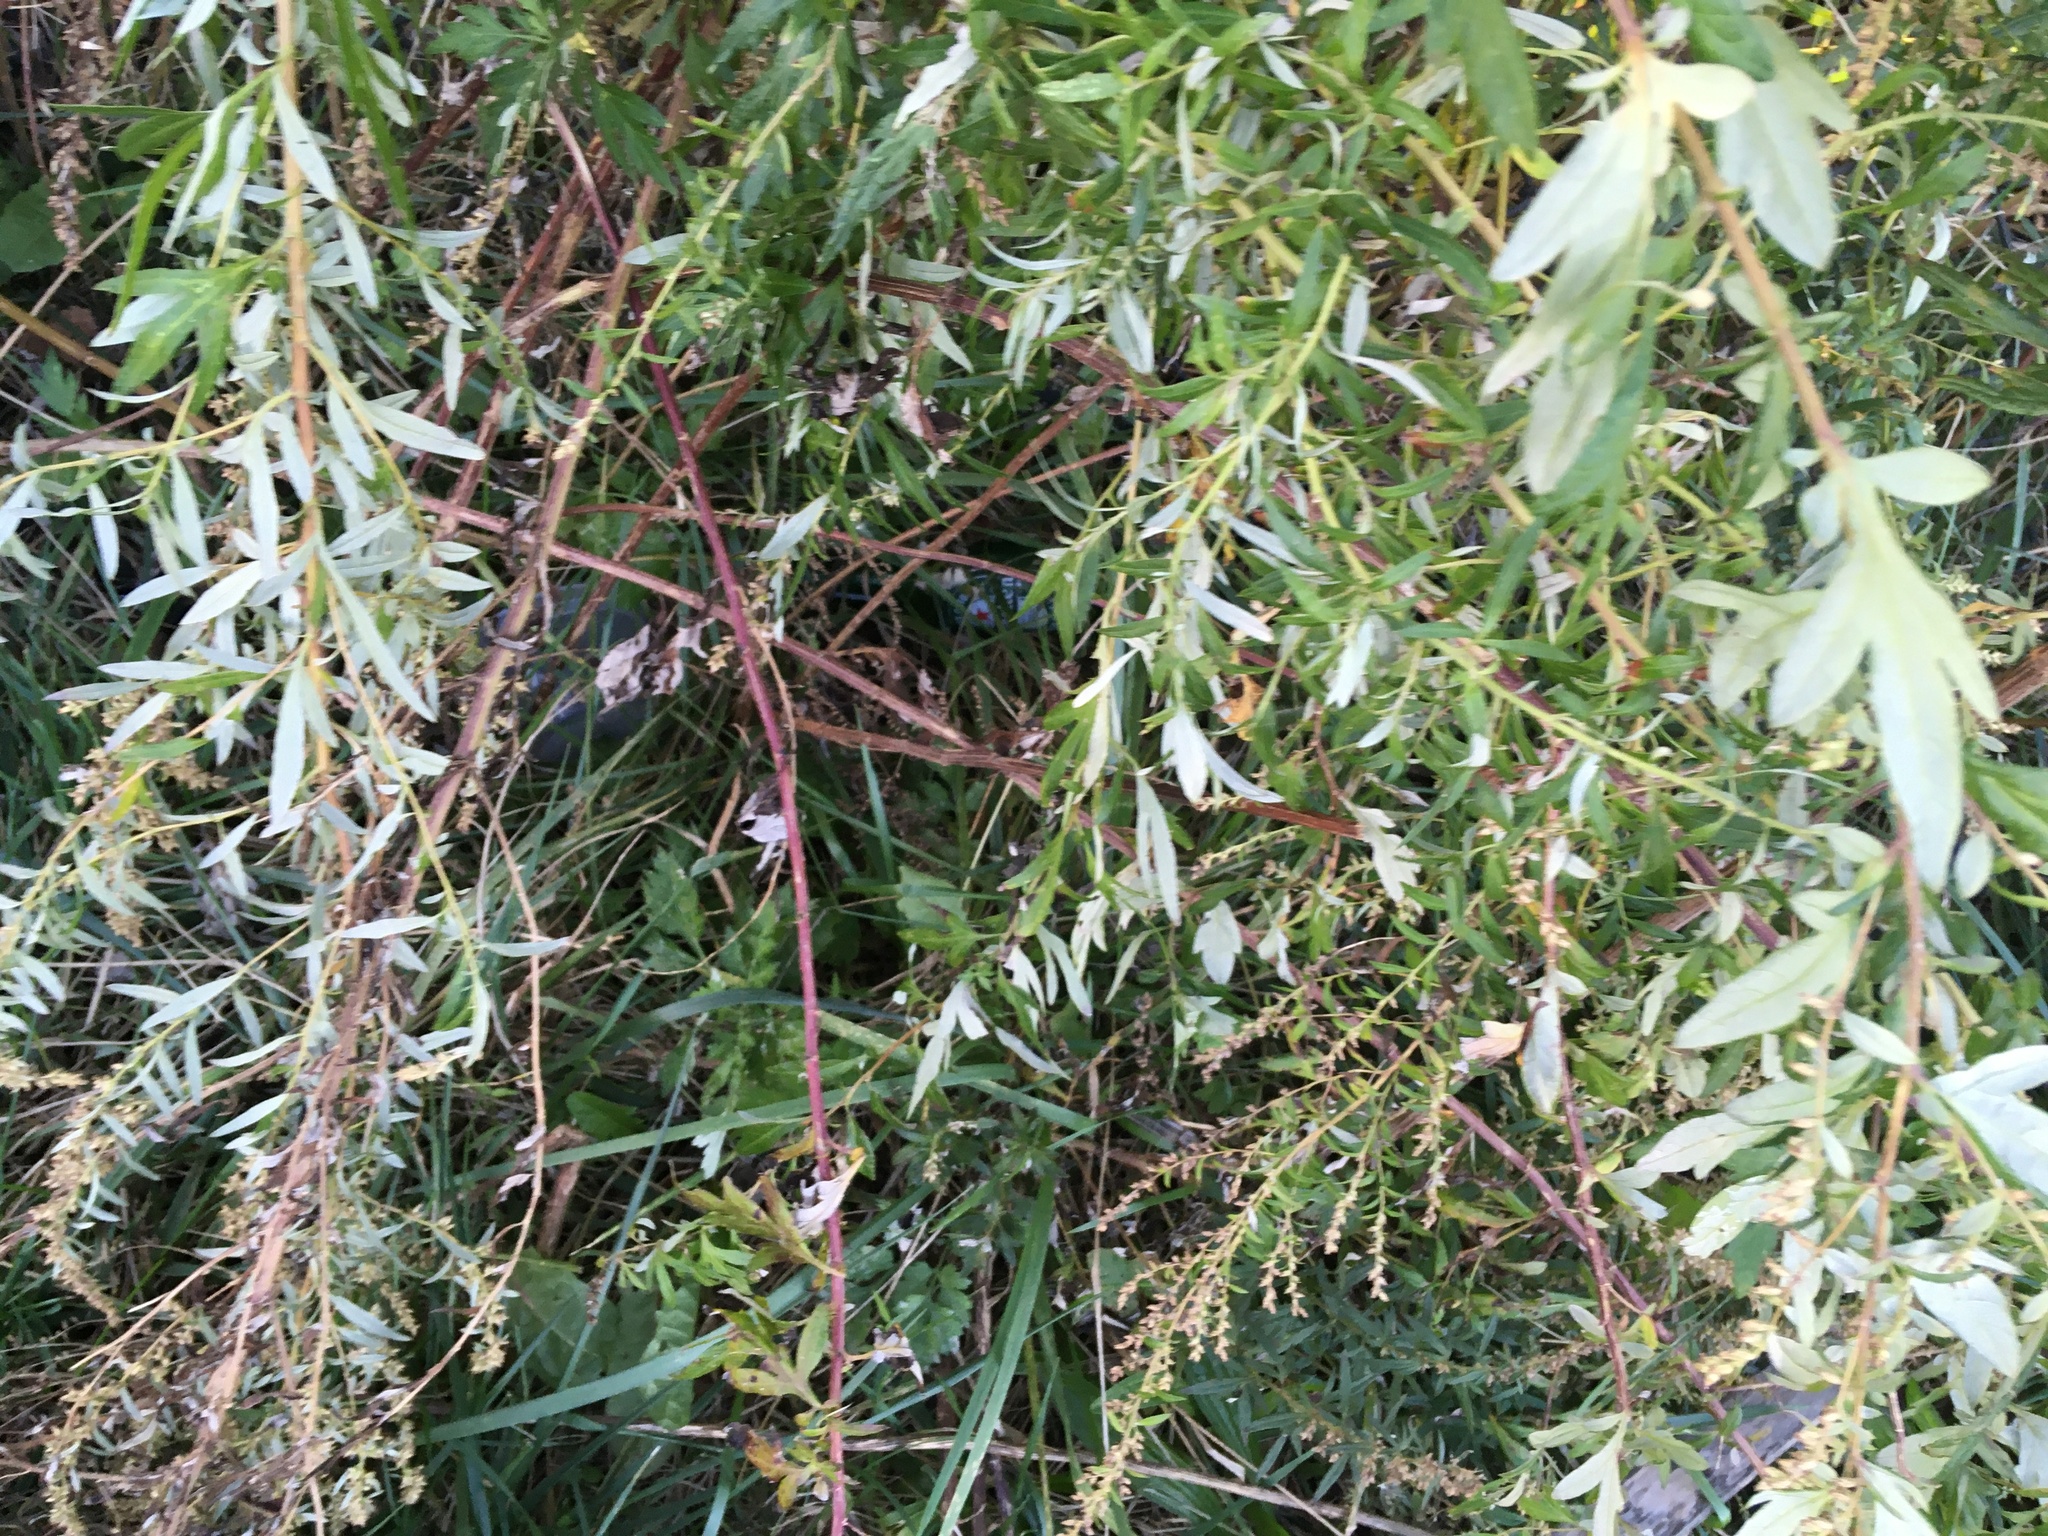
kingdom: Plantae
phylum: Tracheophyta
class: Magnoliopsida
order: Asterales
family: Asteraceae
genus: Artemisia
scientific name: Artemisia vulgaris
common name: Mugwort
